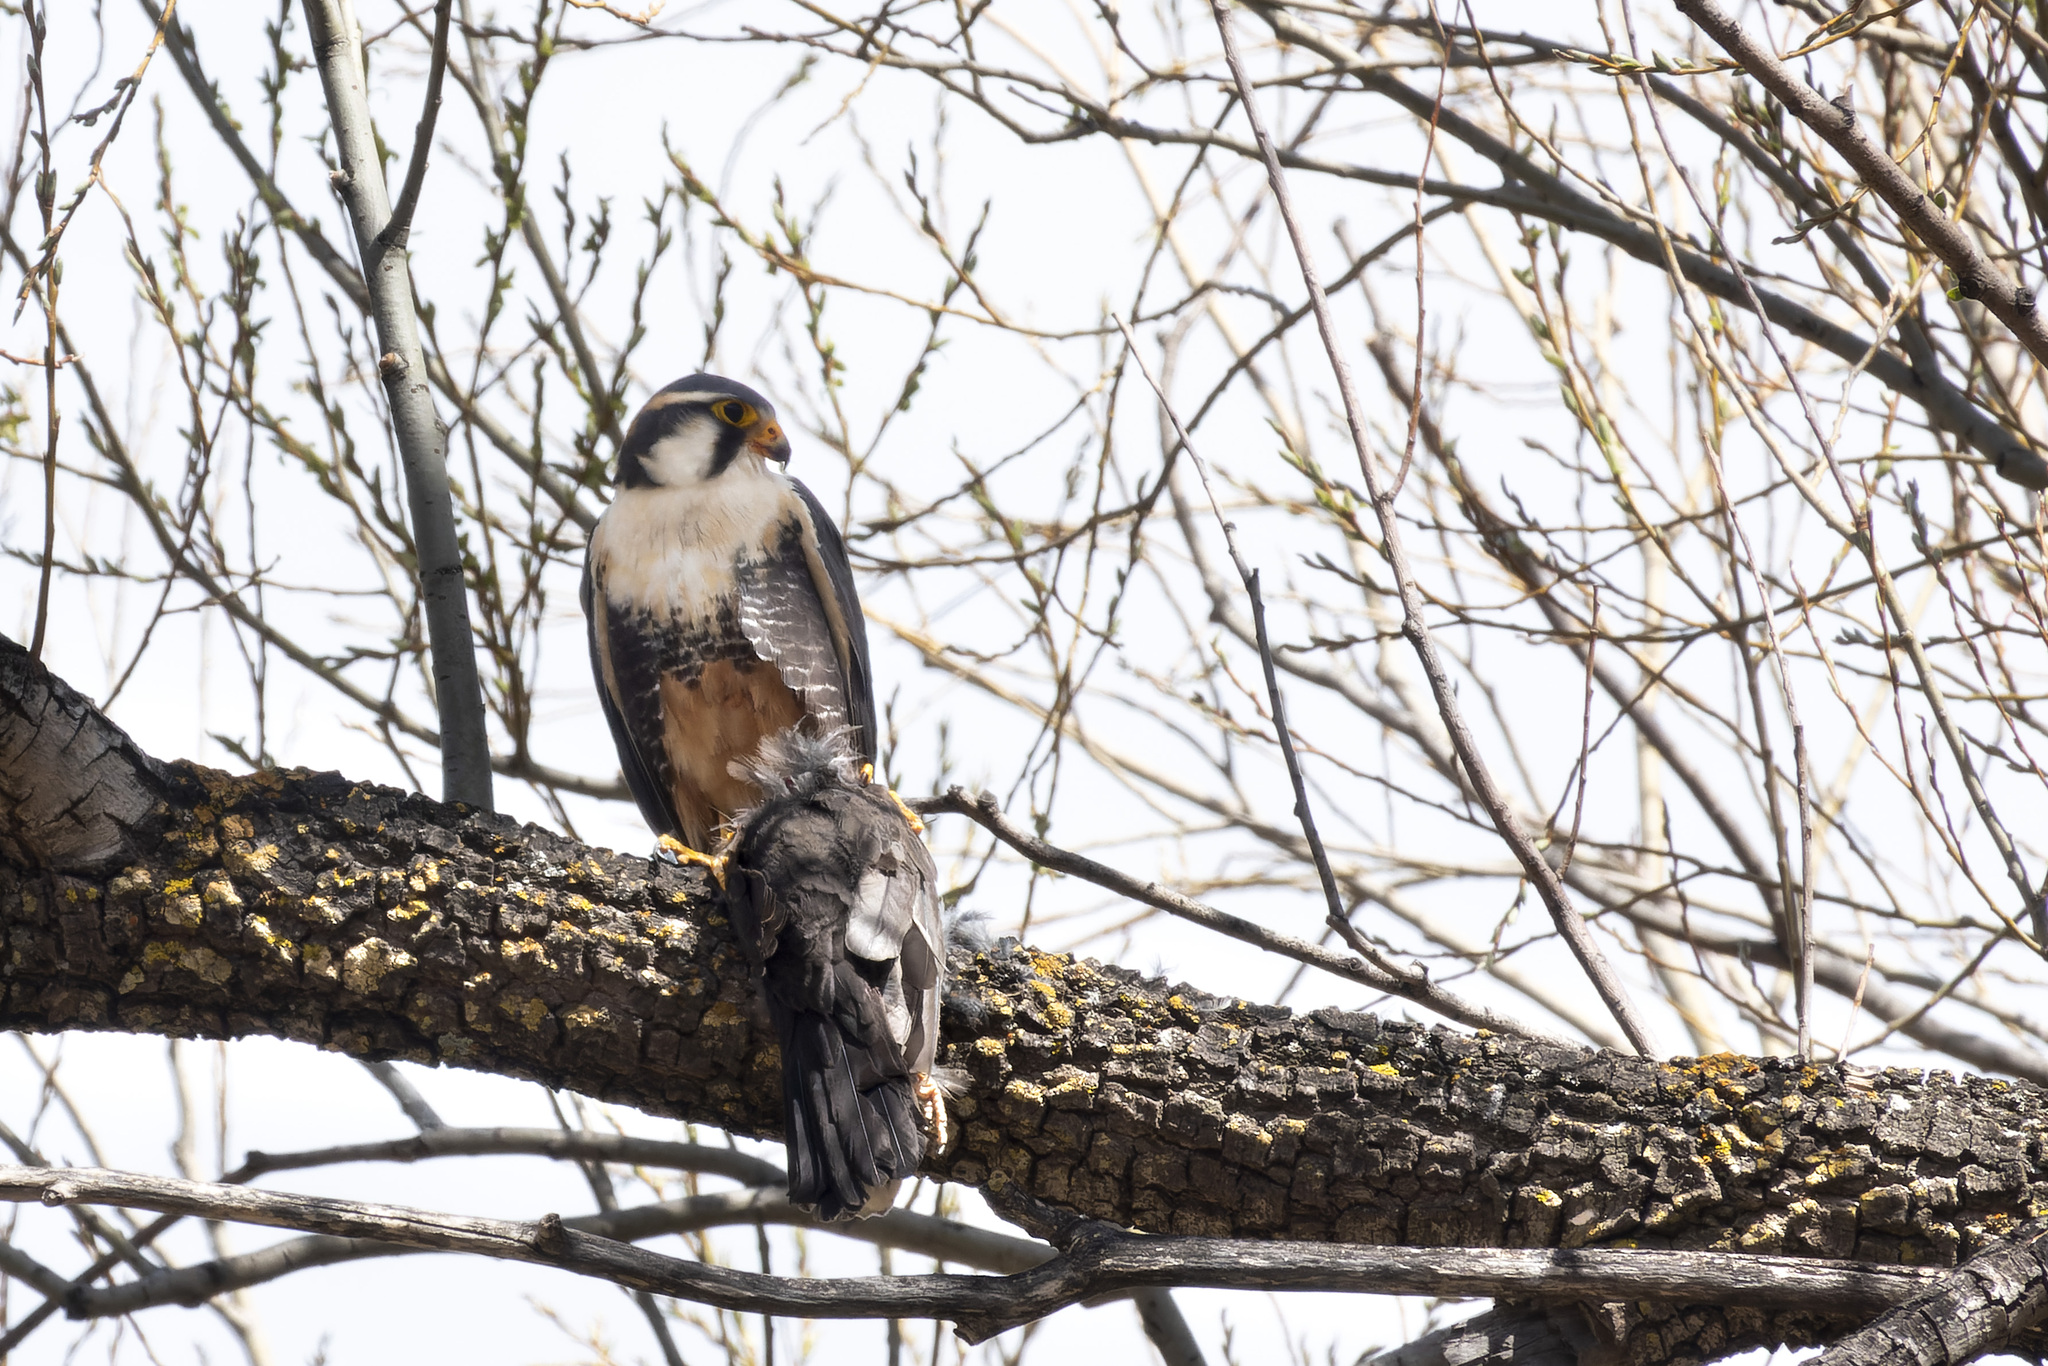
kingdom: Animalia
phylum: Chordata
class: Aves
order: Falconiformes
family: Falconidae
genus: Falco
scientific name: Falco femoralis
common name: Aplomado falcon
